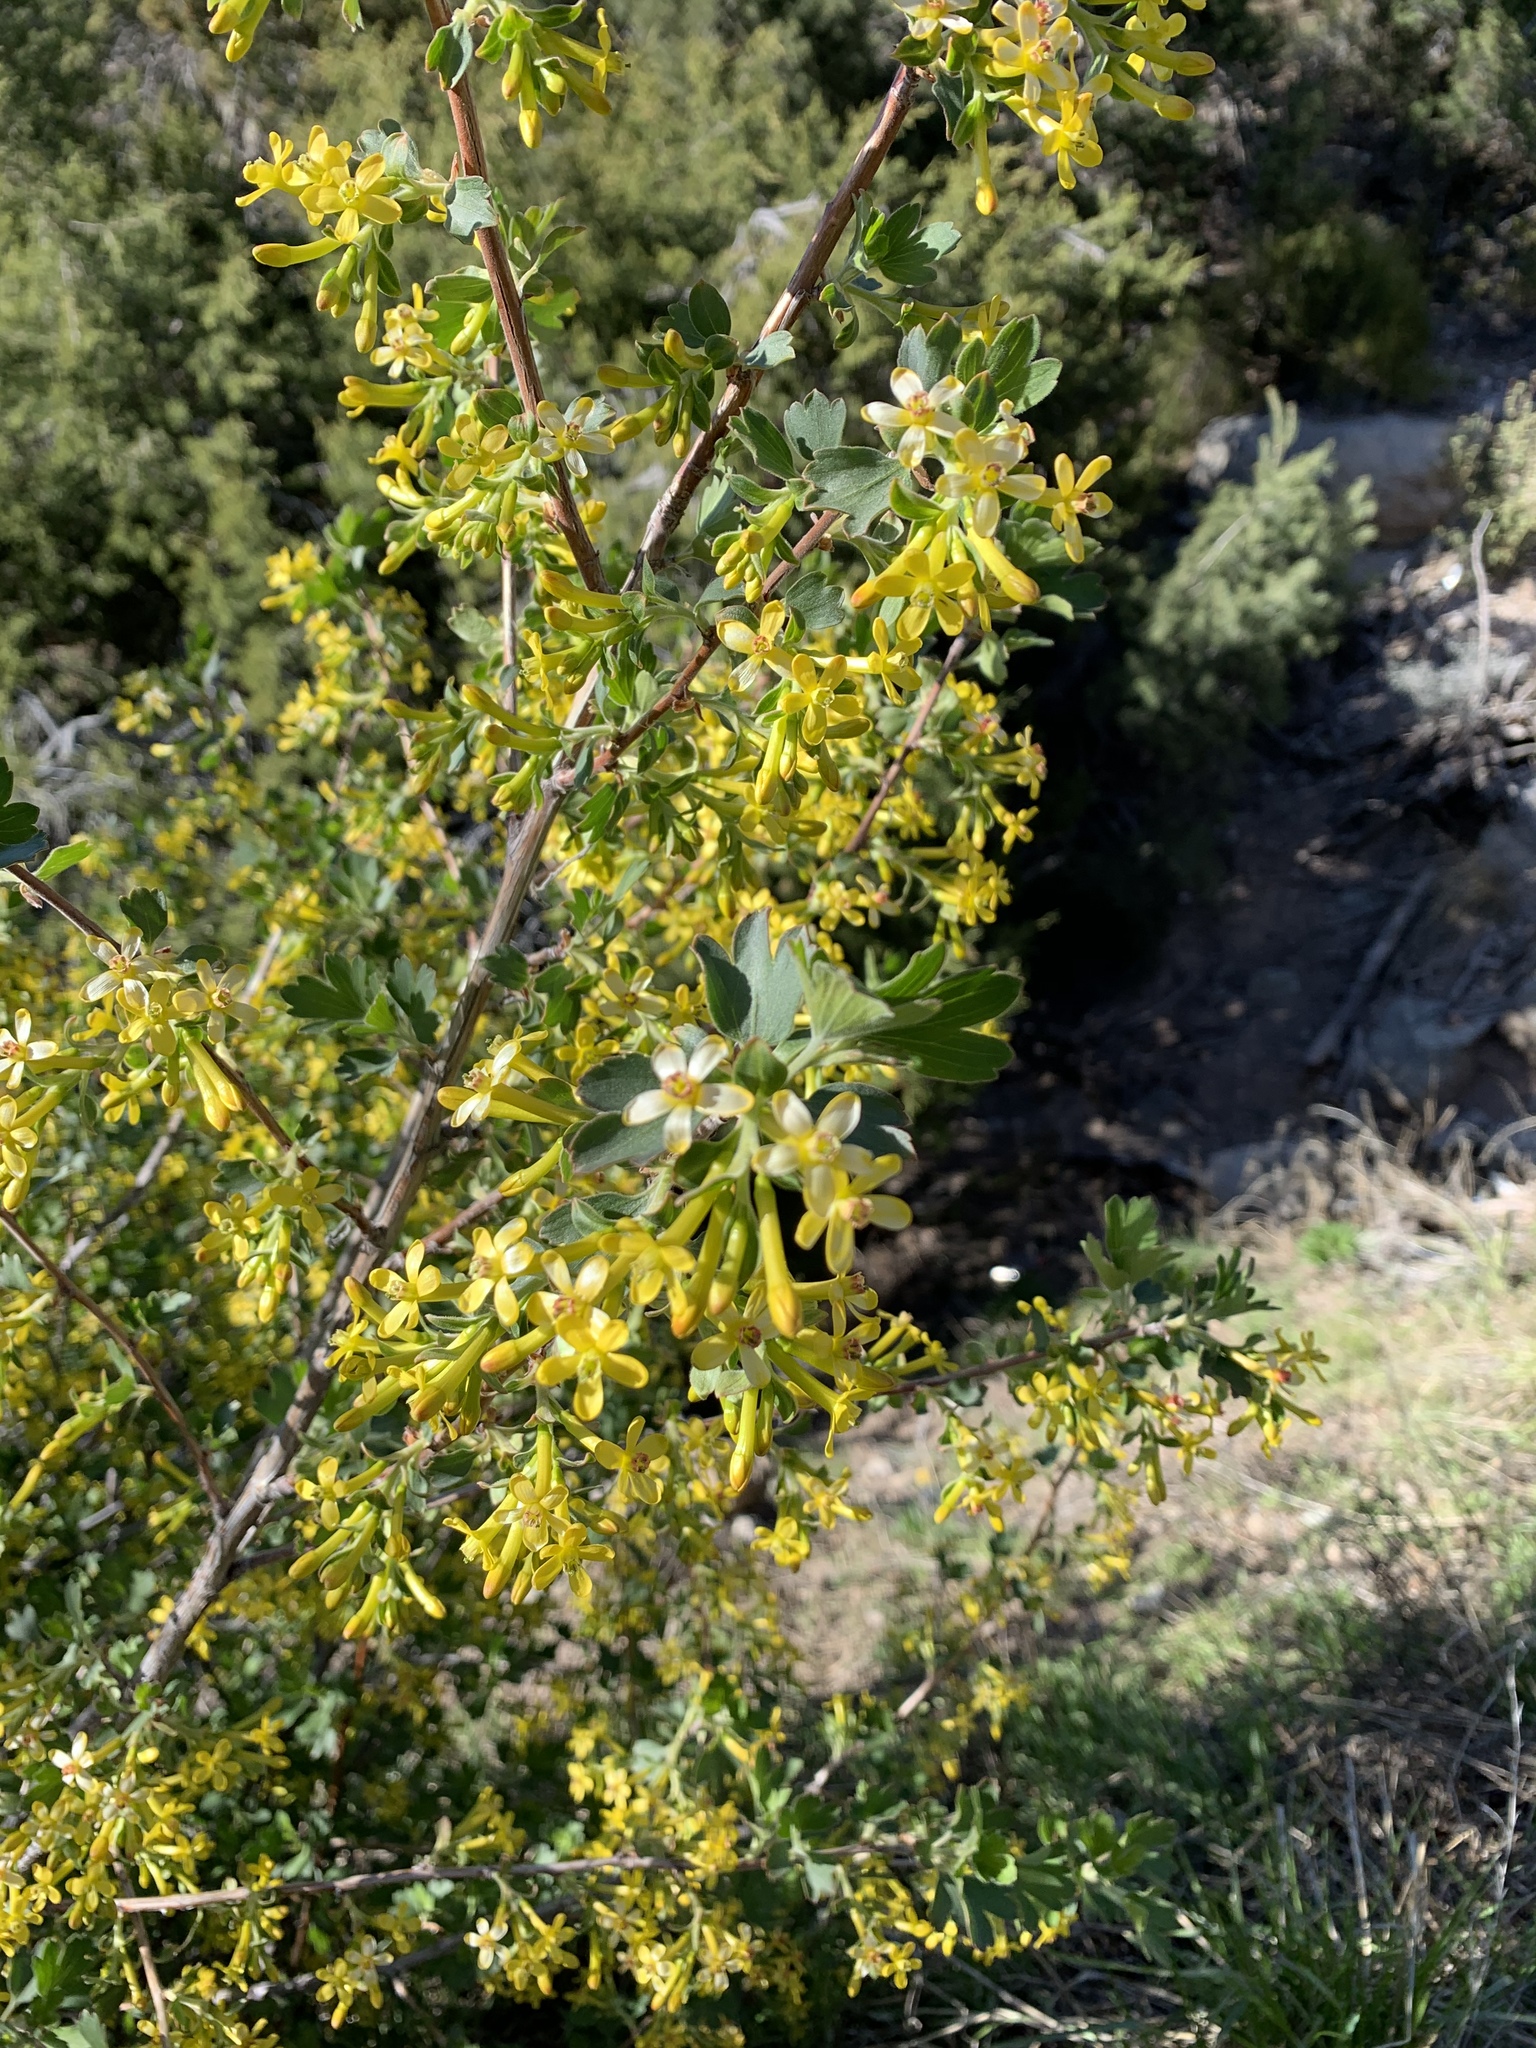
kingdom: Plantae
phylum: Tracheophyta
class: Magnoliopsida
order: Saxifragales
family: Grossulariaceae
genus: Ribes
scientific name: Ribes aureum
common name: Golden currant
